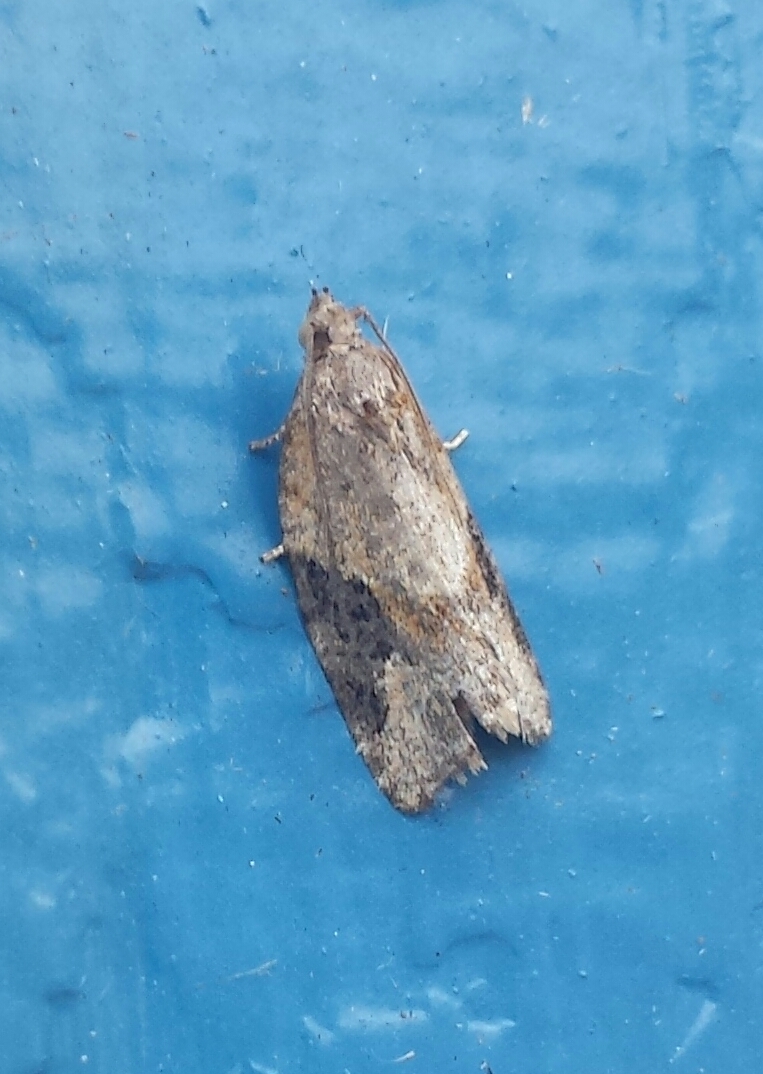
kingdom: Animalia
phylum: Arthropoda
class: Insecta
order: Lepidoptera
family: Tortricidae
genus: Argyrotaenia
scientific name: Argyrotaenia mariana
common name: Gray-banded leafroller moth
